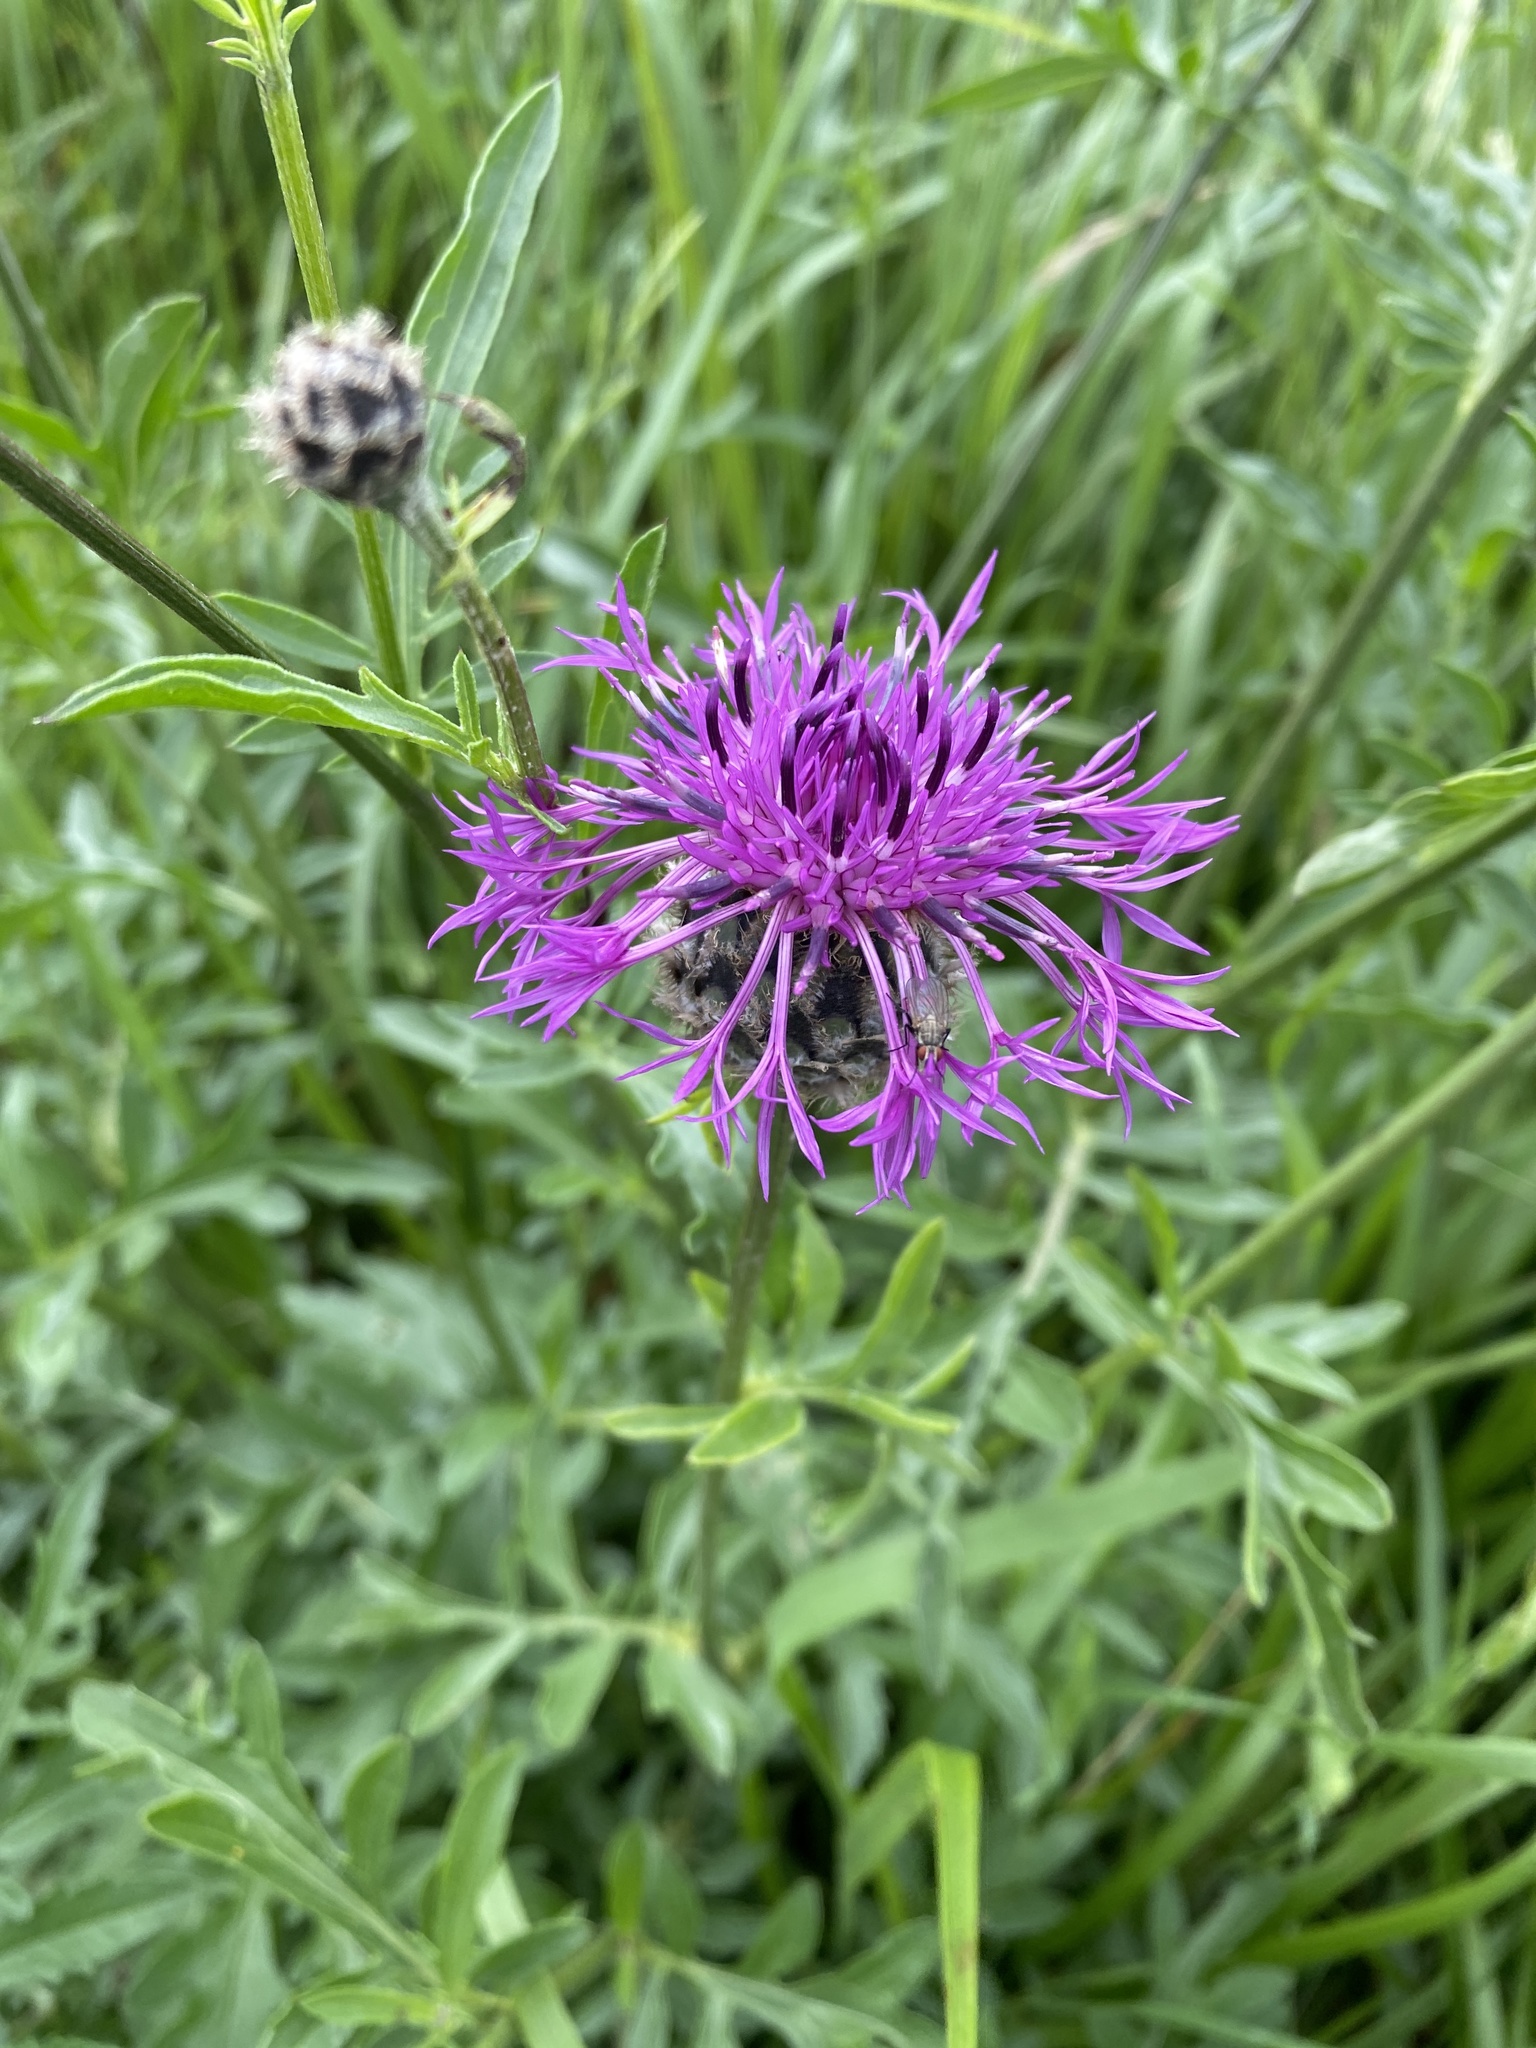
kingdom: Plantae
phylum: Tracheophyta
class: Magnoliopsida
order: Asterales
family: Asteraceae
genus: Centaurea
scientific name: Centaurea scabiosa
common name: Greater knapweed
